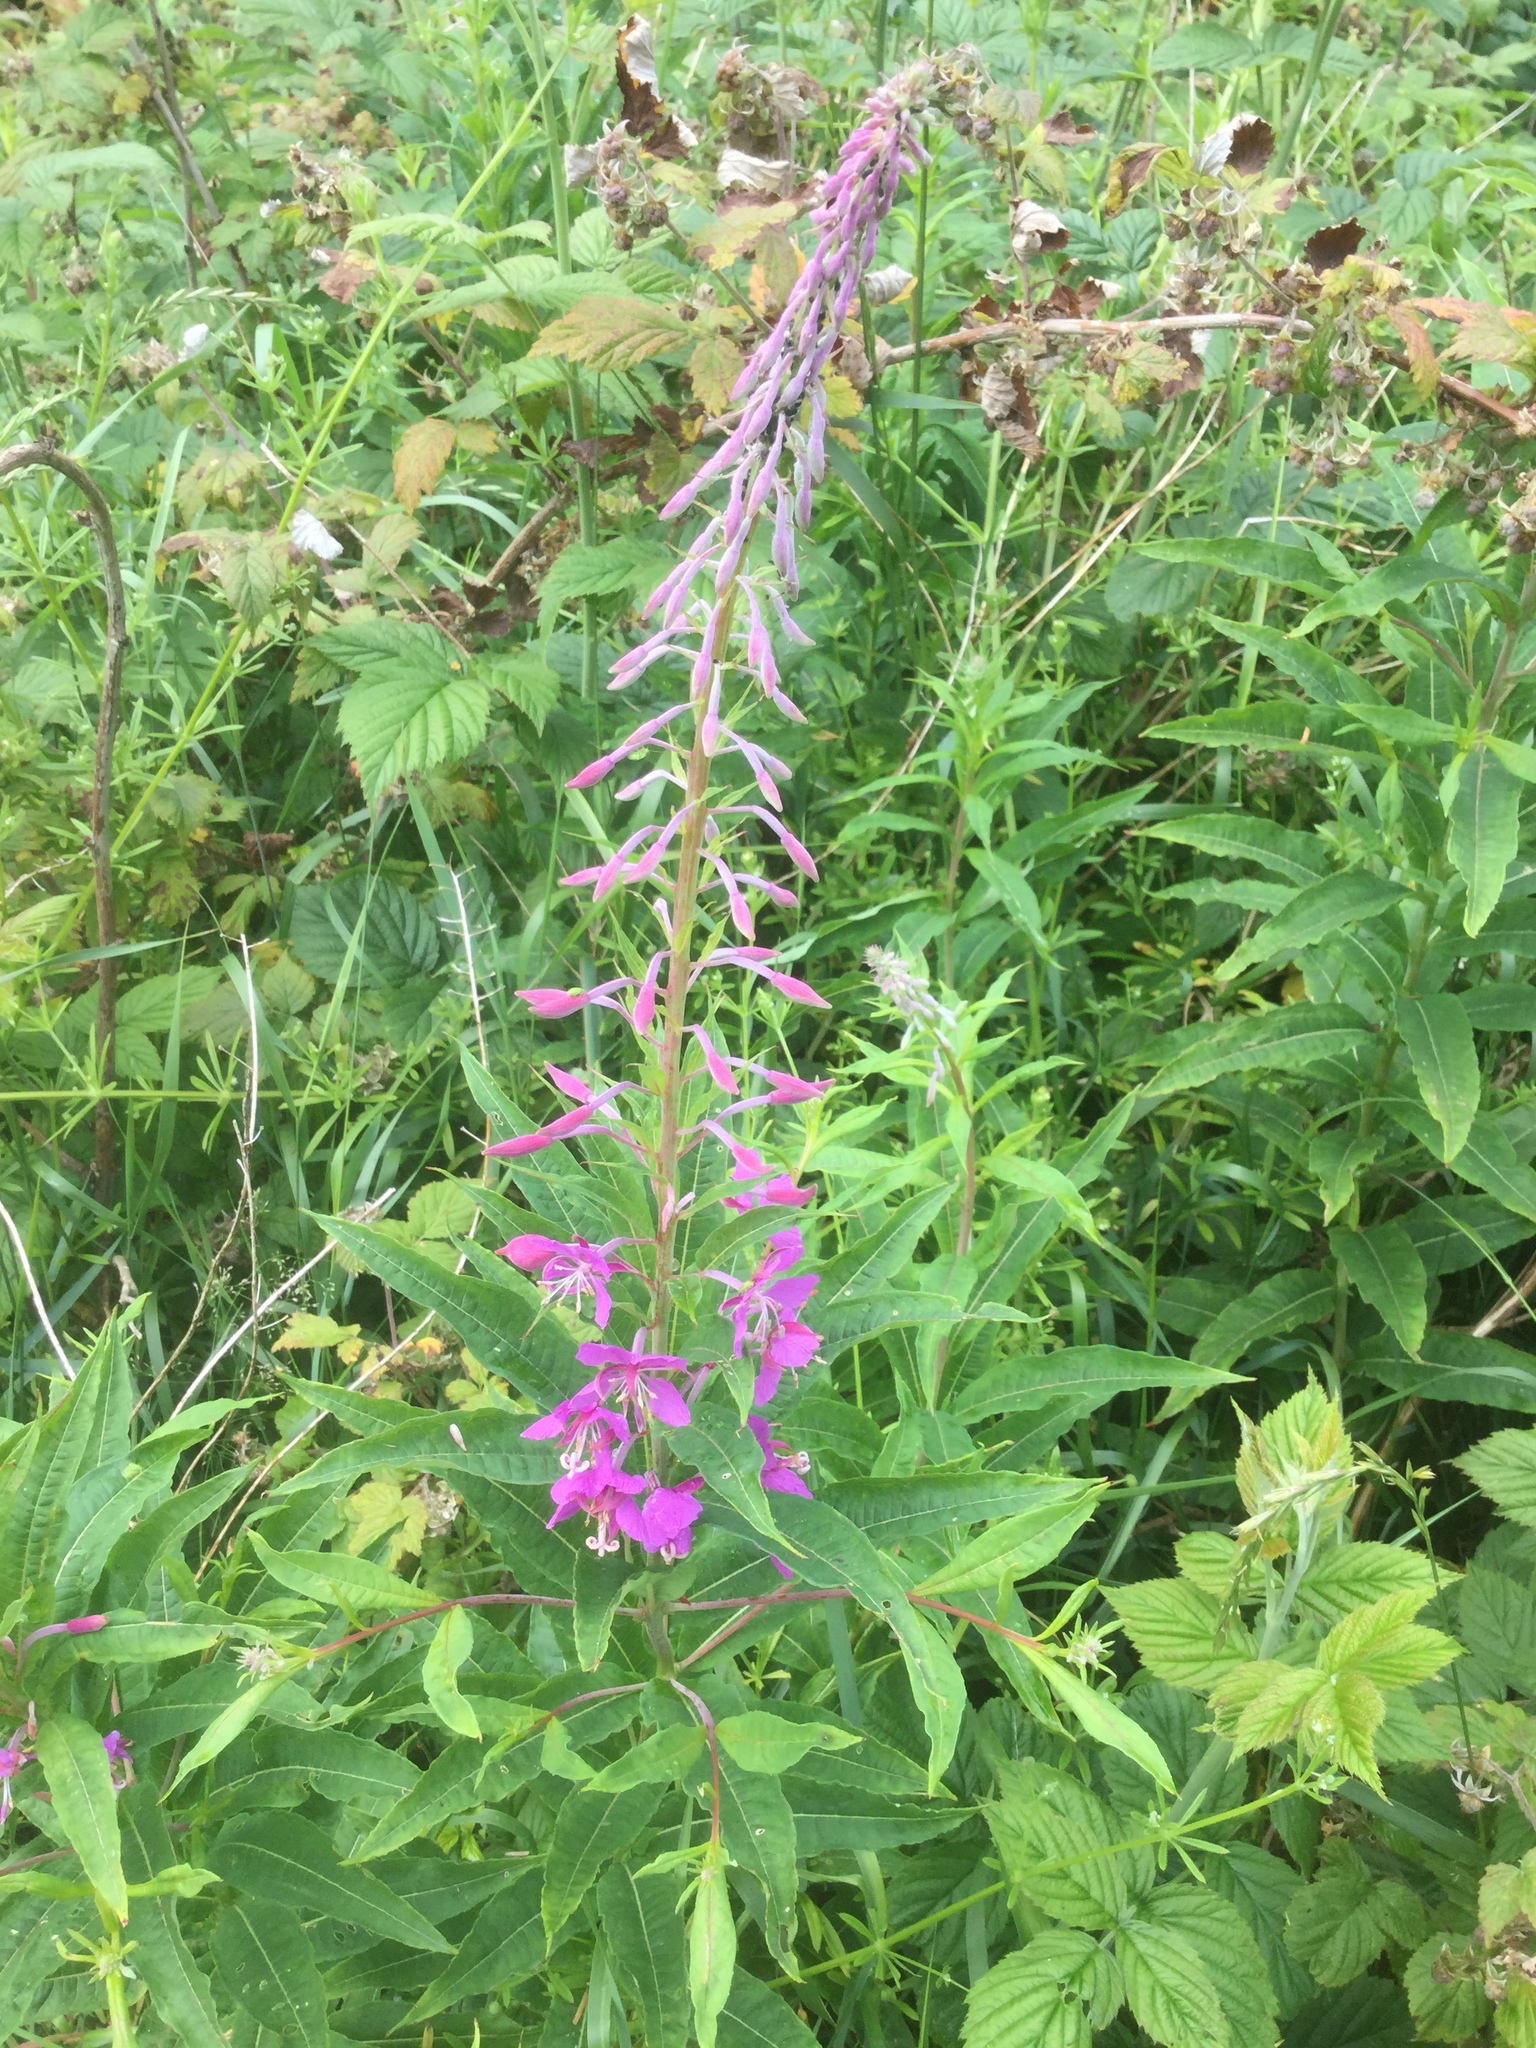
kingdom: Plantae
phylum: Tracheophyta
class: Magnoliopsida
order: Myrtales
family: Onagraceae
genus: Chamaenerion
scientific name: Chamaenerion angustifolium
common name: Fireweed
